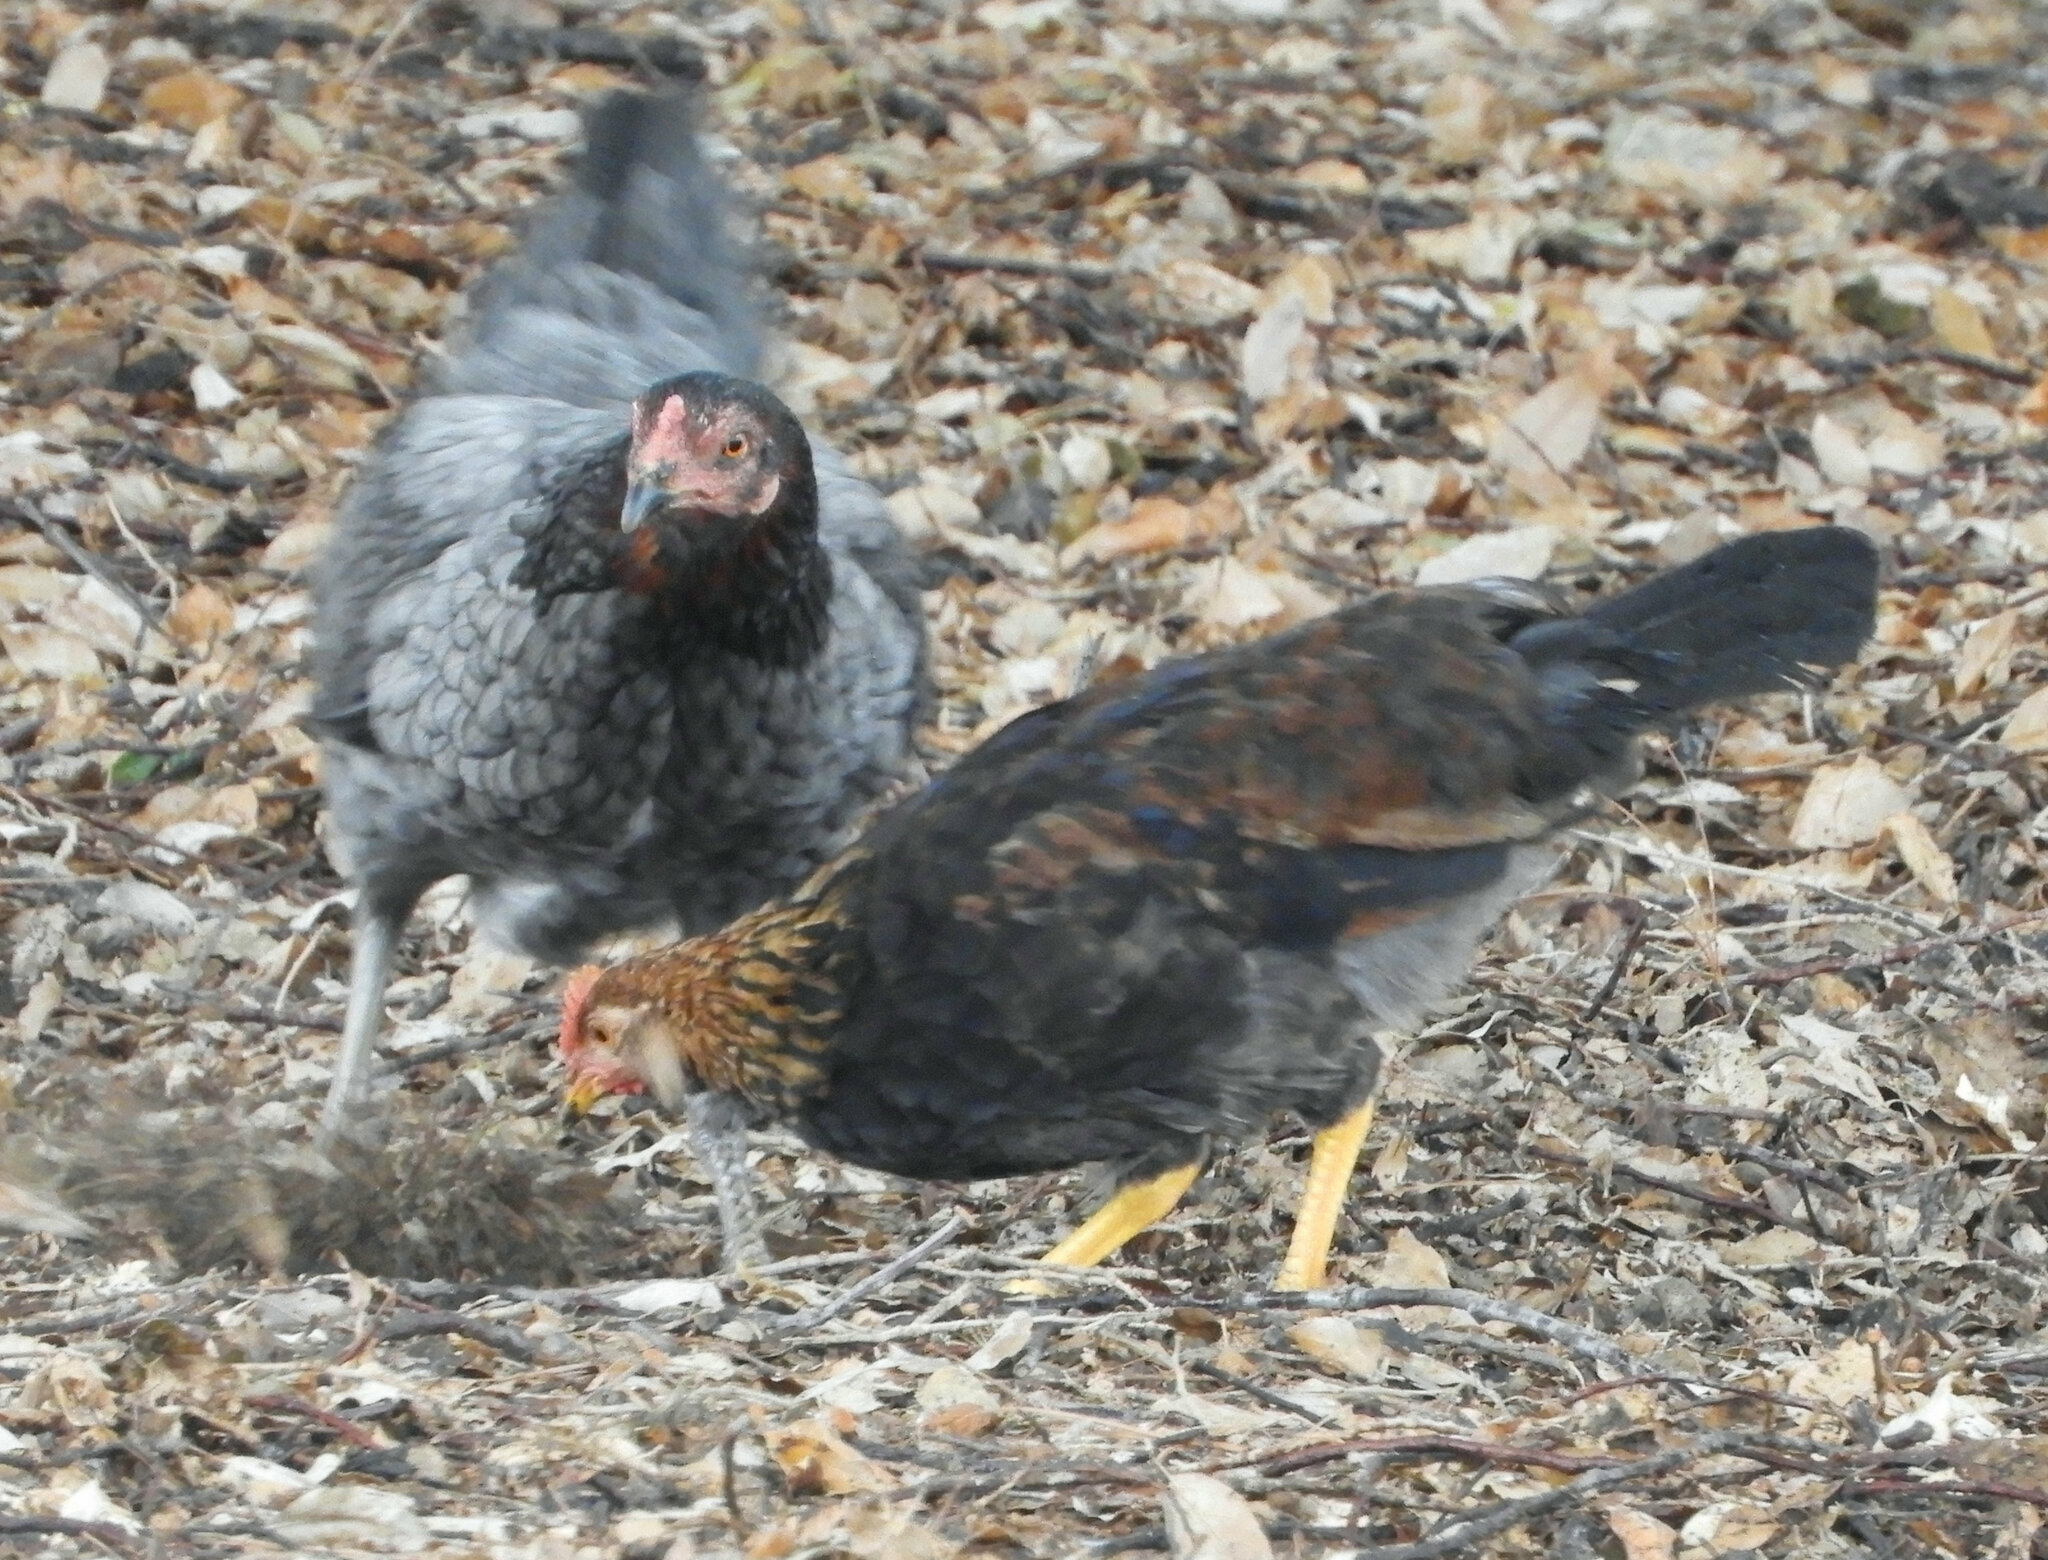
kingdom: Animalia
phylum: Chordata
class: Aves
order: Galliformes
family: Phasianidae
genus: Gallus
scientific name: Gallus gallus
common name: Red junglefowl
